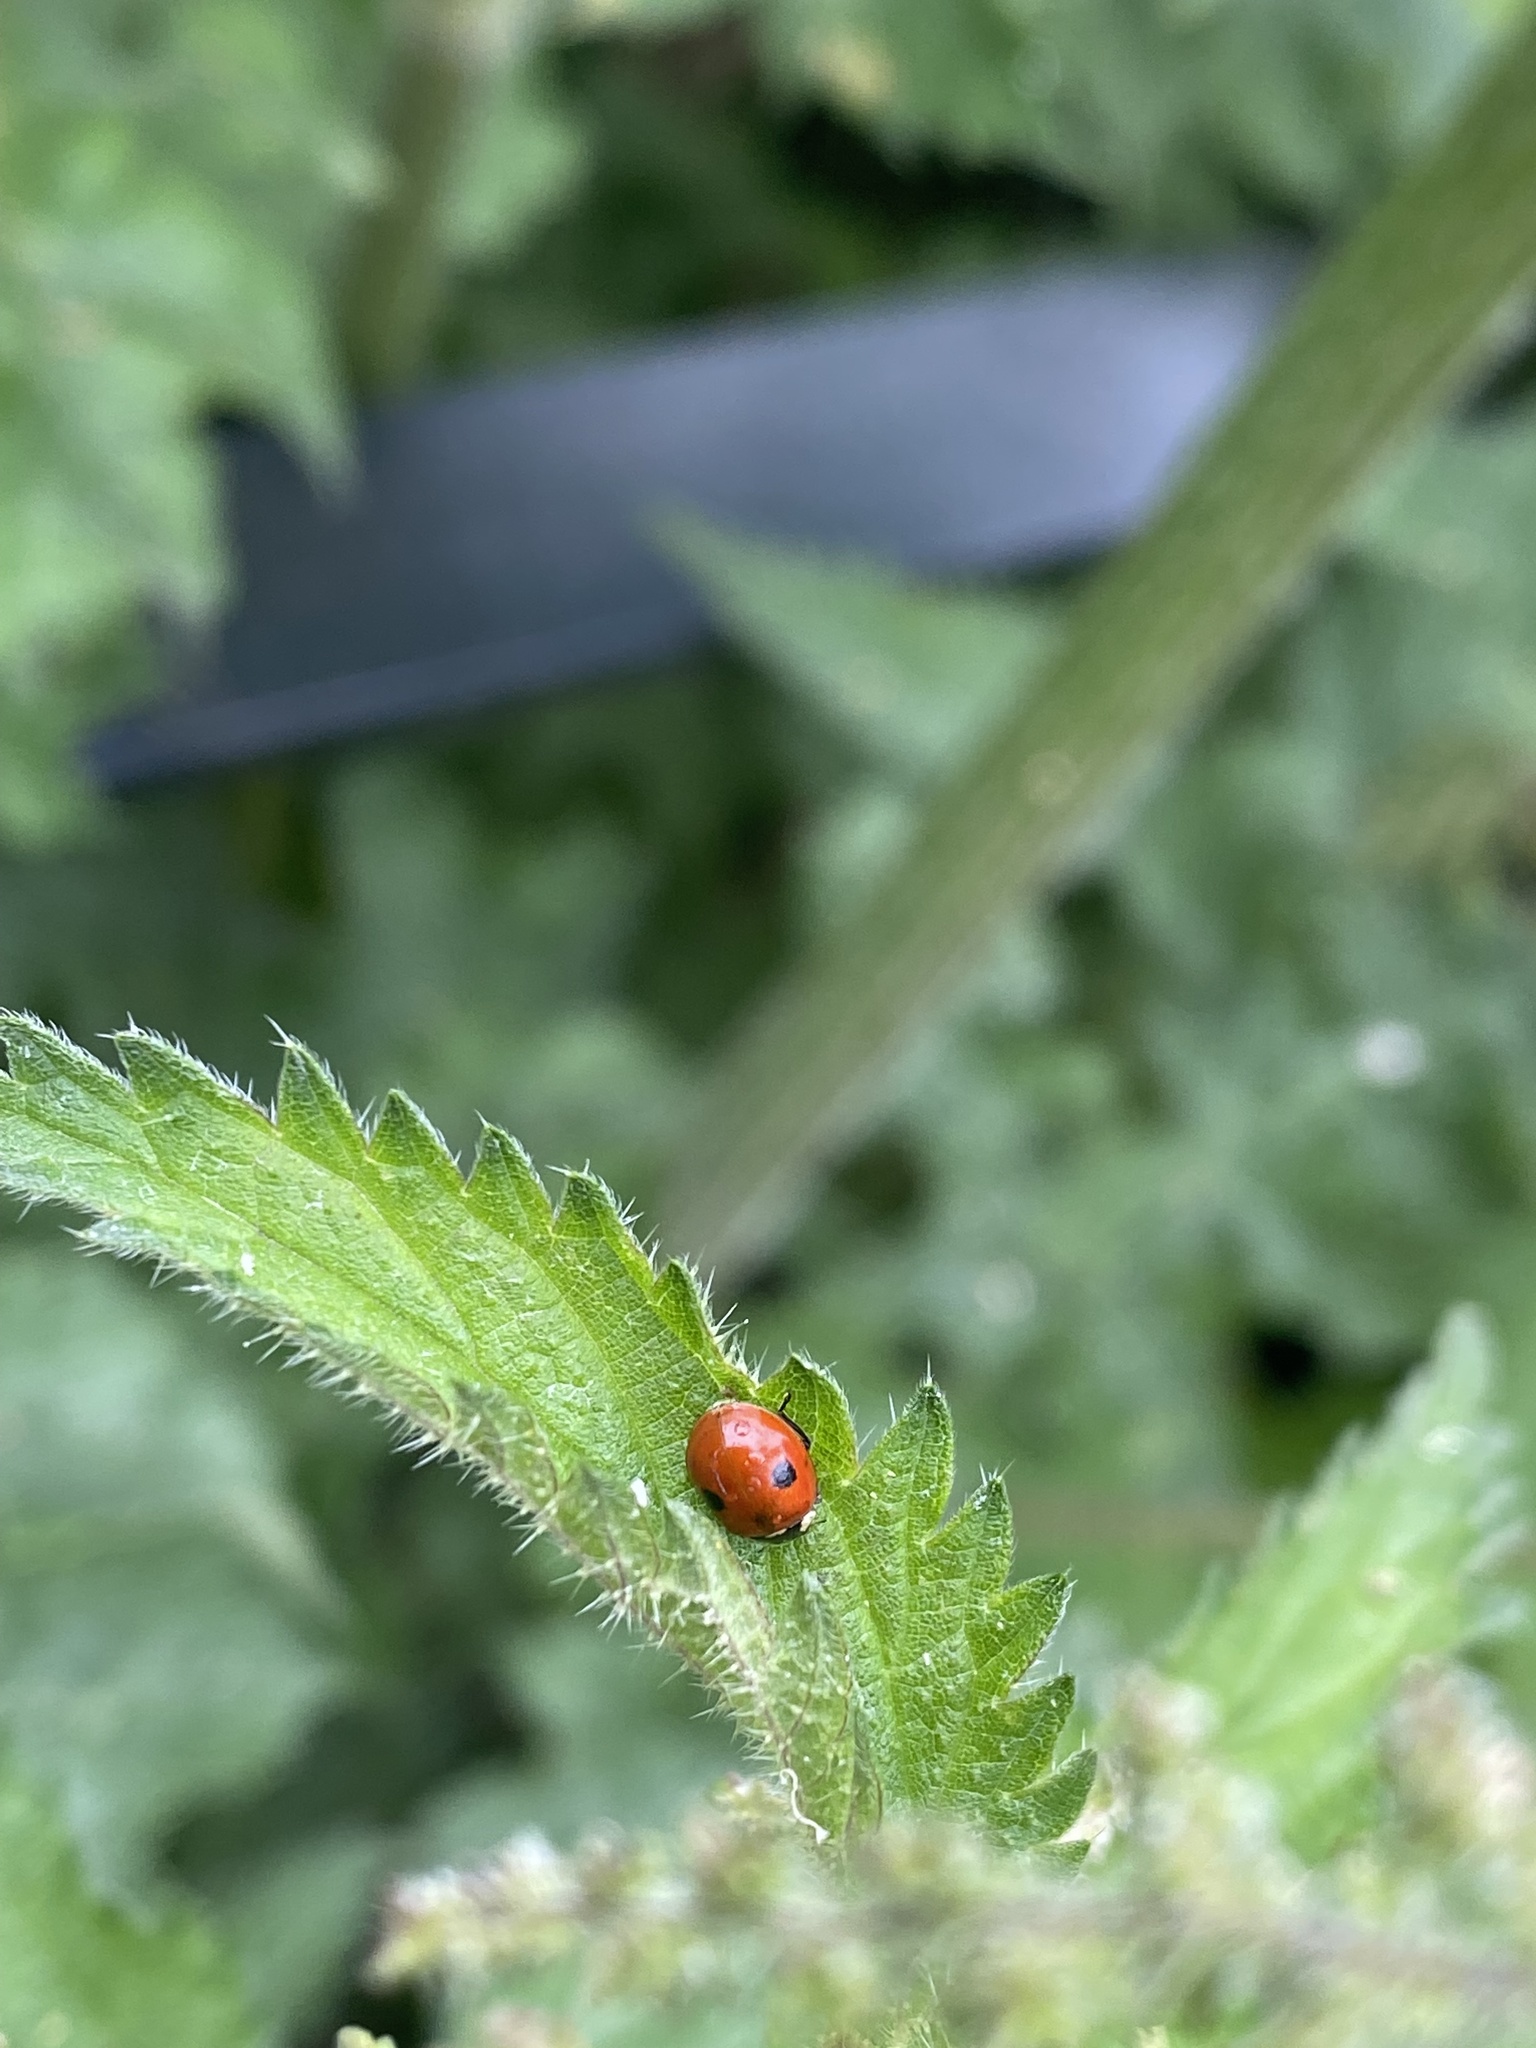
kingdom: Animalia
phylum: Arthropoda
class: Insecta
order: Coleoptera
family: Coccinellidae
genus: Adalia
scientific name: Adalia bipunctata
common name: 2-spot ladybird
